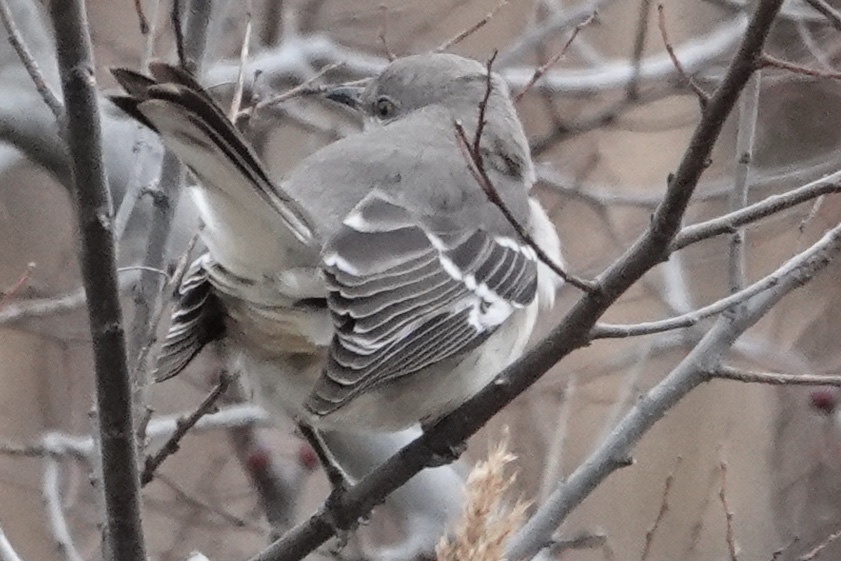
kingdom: Animalia
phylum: Chordata
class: Aves
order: Passeriformes
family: Mimidae
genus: Mimus
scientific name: Mimus polyglottos
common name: Northern mockingbird
